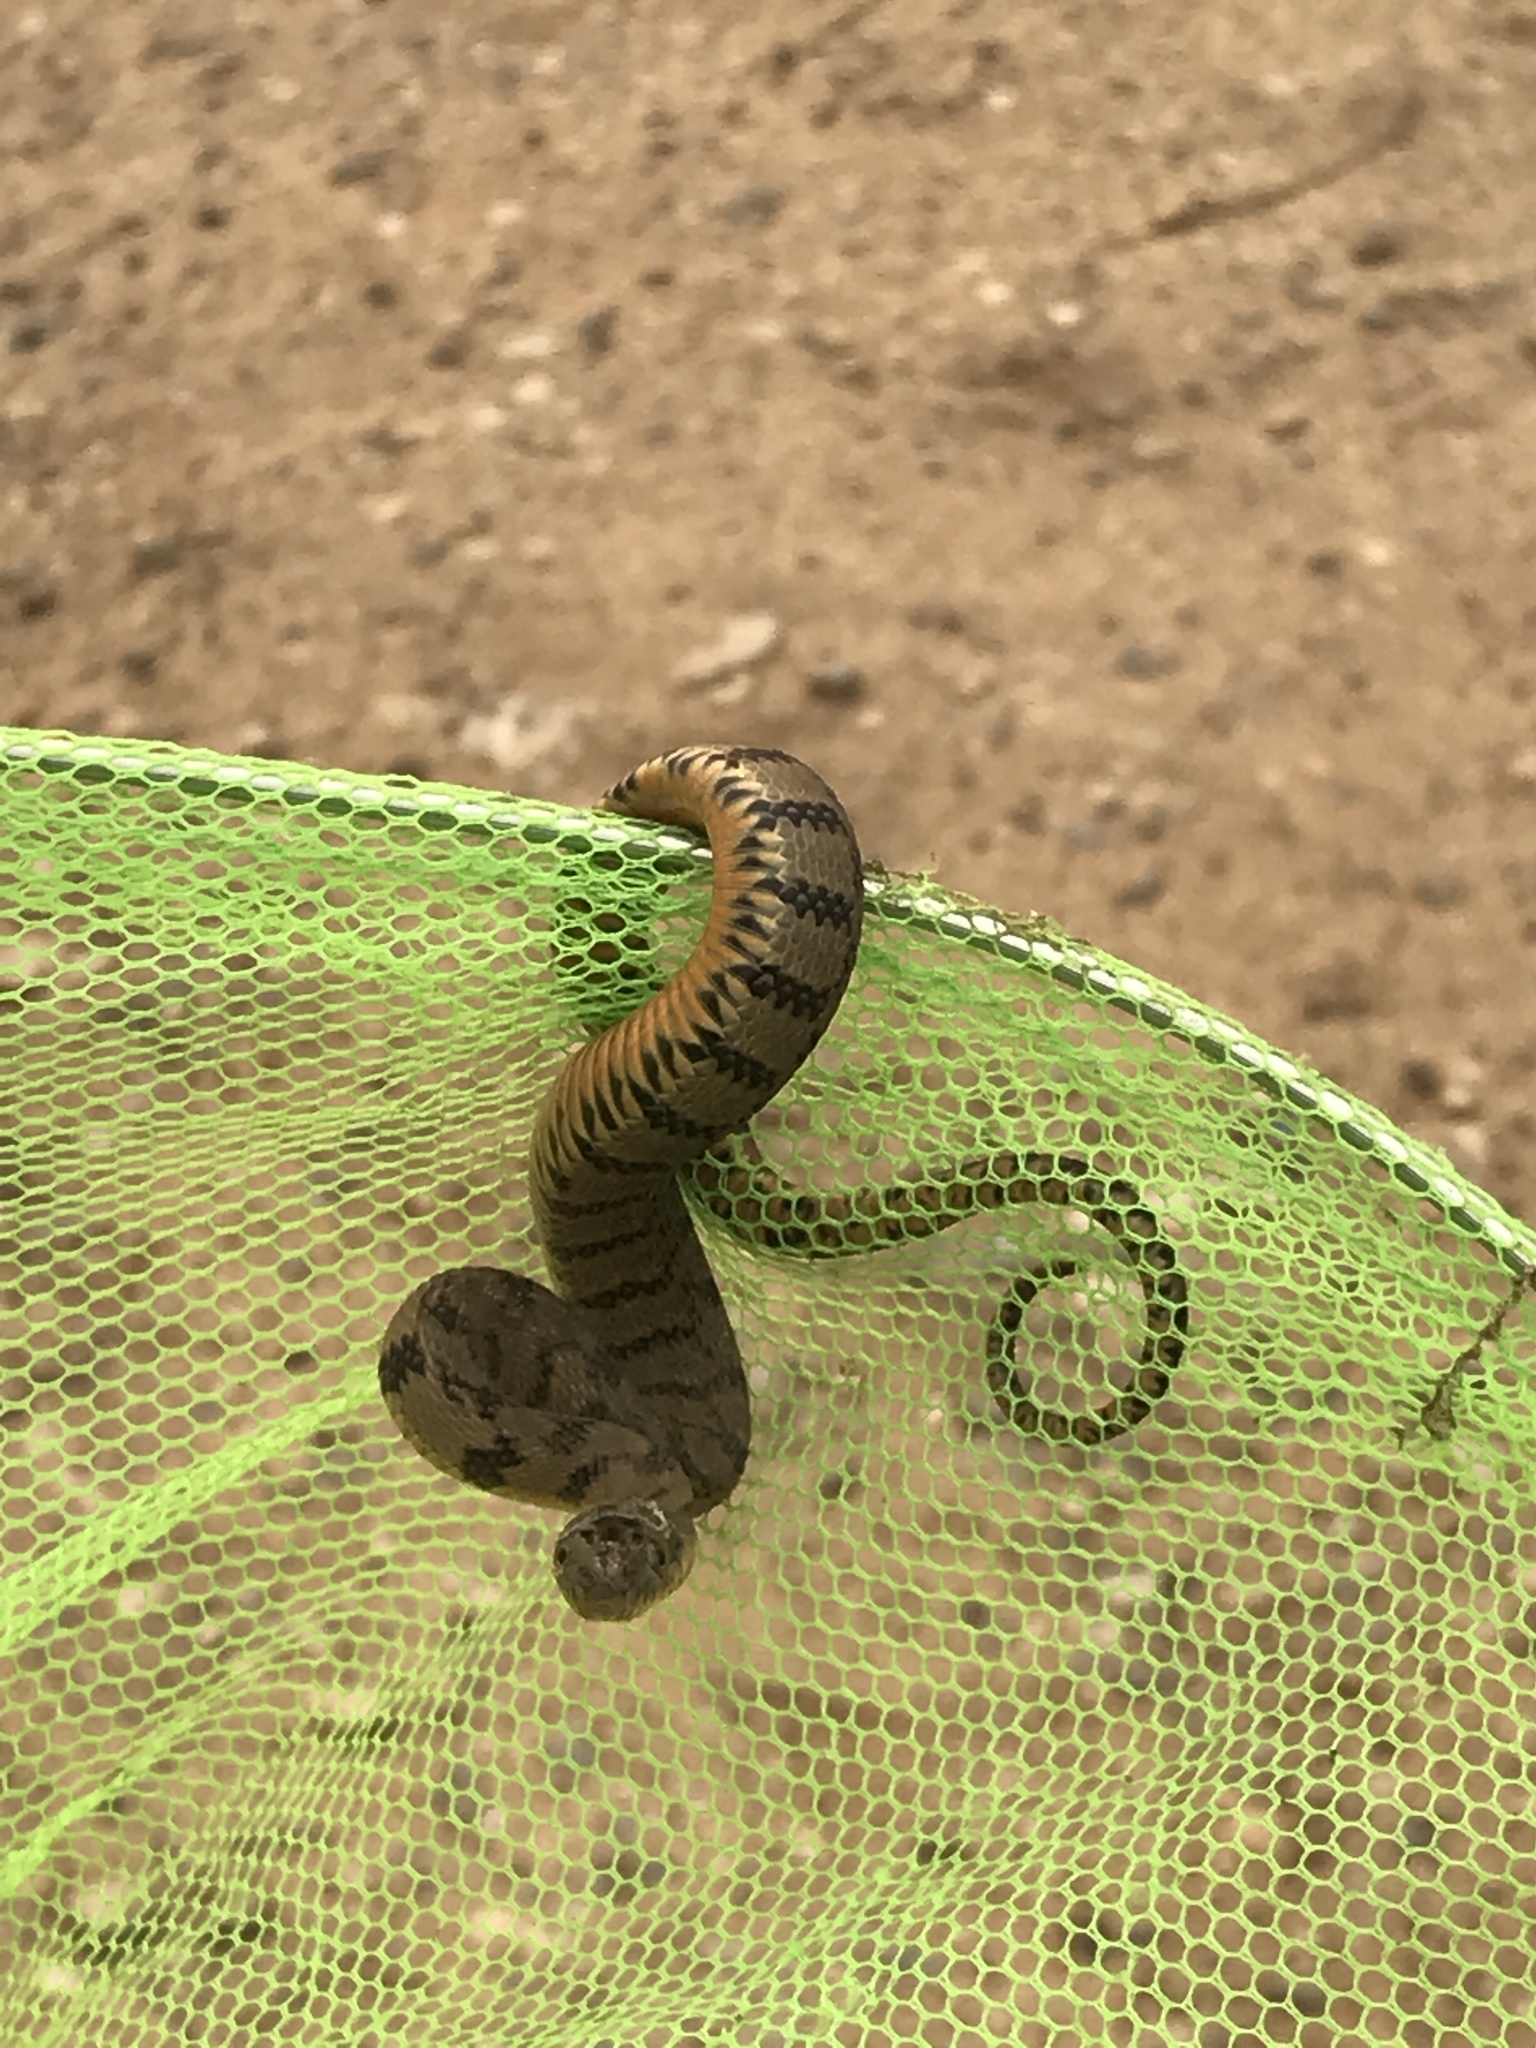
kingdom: Animalia
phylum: Chordata
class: Squamata
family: Colubridae
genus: Nerodia
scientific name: Nerodia rhombifer
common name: Diamondback water snake
